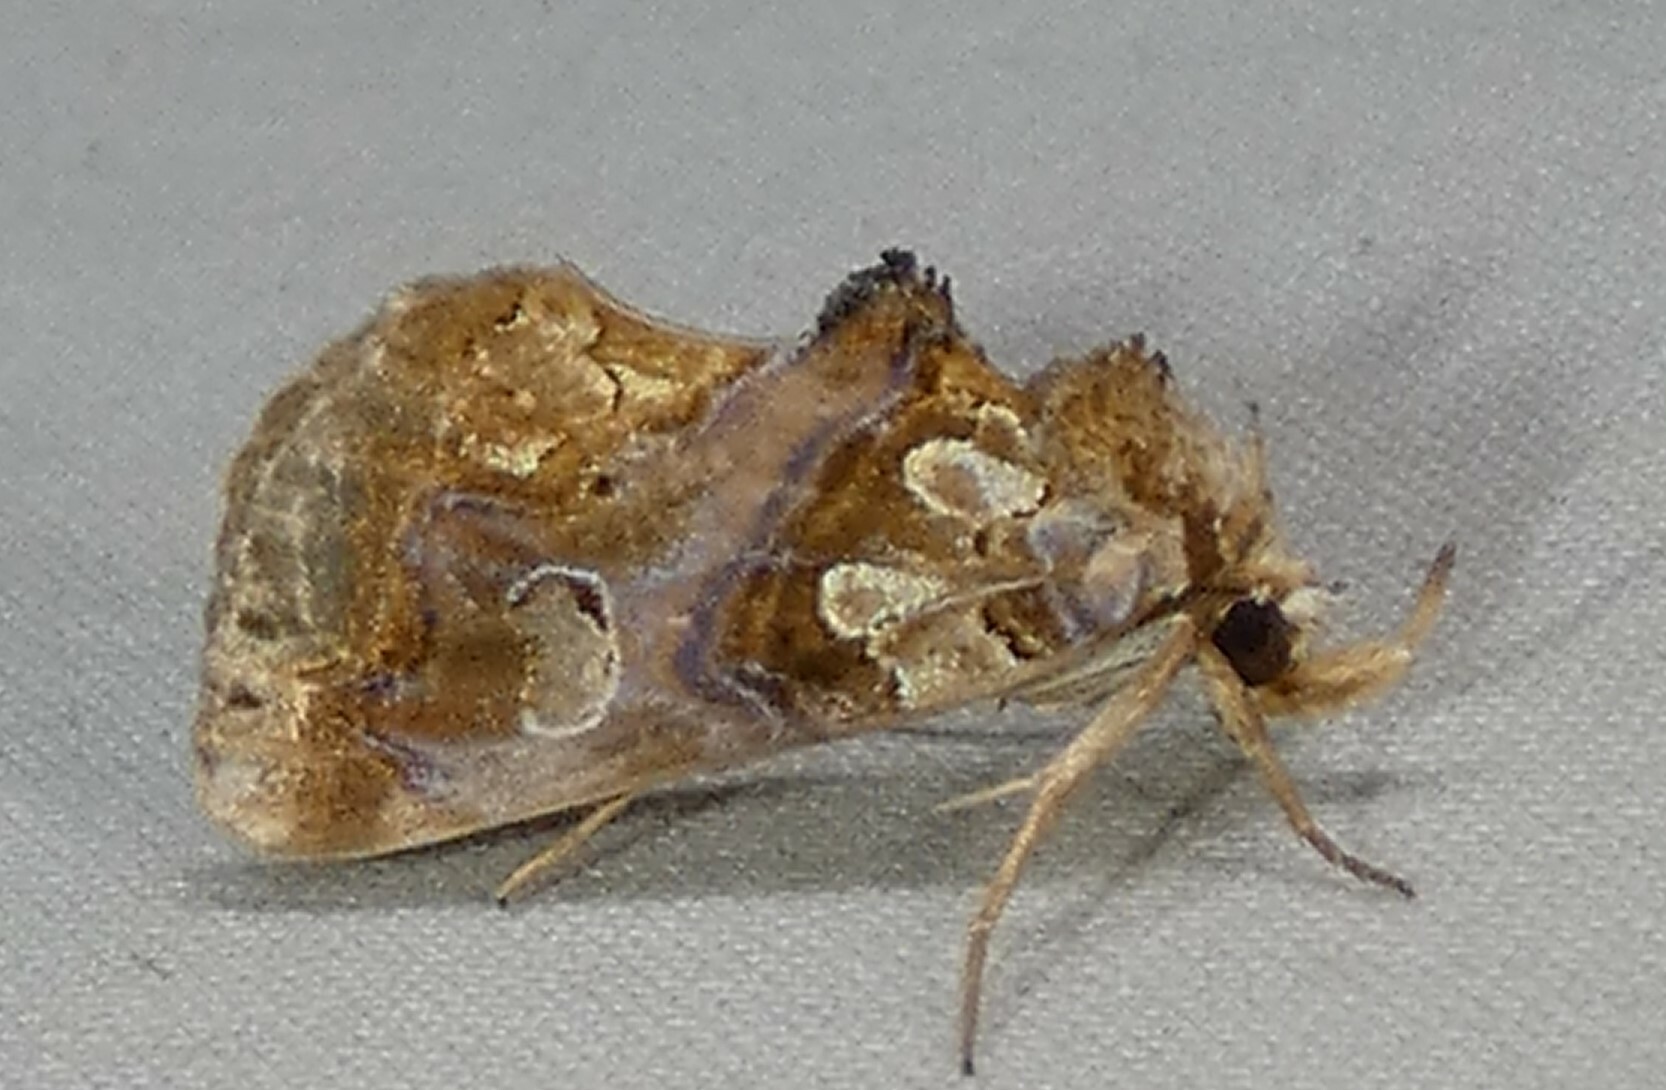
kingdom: Animalia
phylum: Arthropoda
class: Insecta
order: Lepidoptera
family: Erebidae
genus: Plusiodonta
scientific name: Plusiodonta compressipalpis
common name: Moonseed moth
